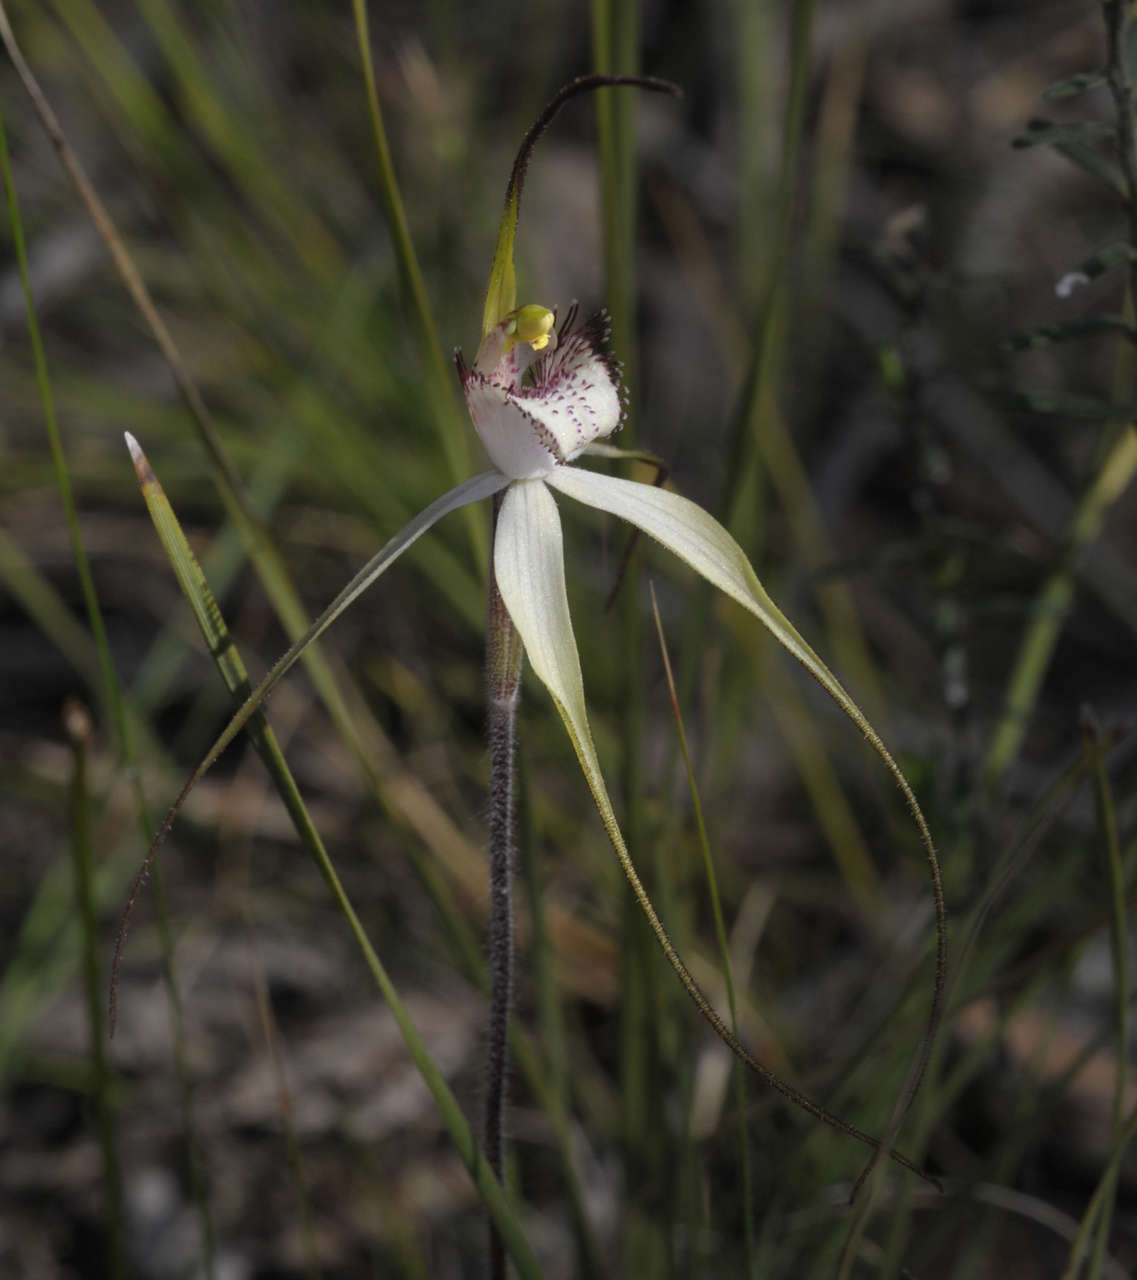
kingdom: Plantae
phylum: Tracheophyta
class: Liliopsida
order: Asparagales
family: Orchidaceae
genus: Caladenia
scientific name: Caladenia venusta
